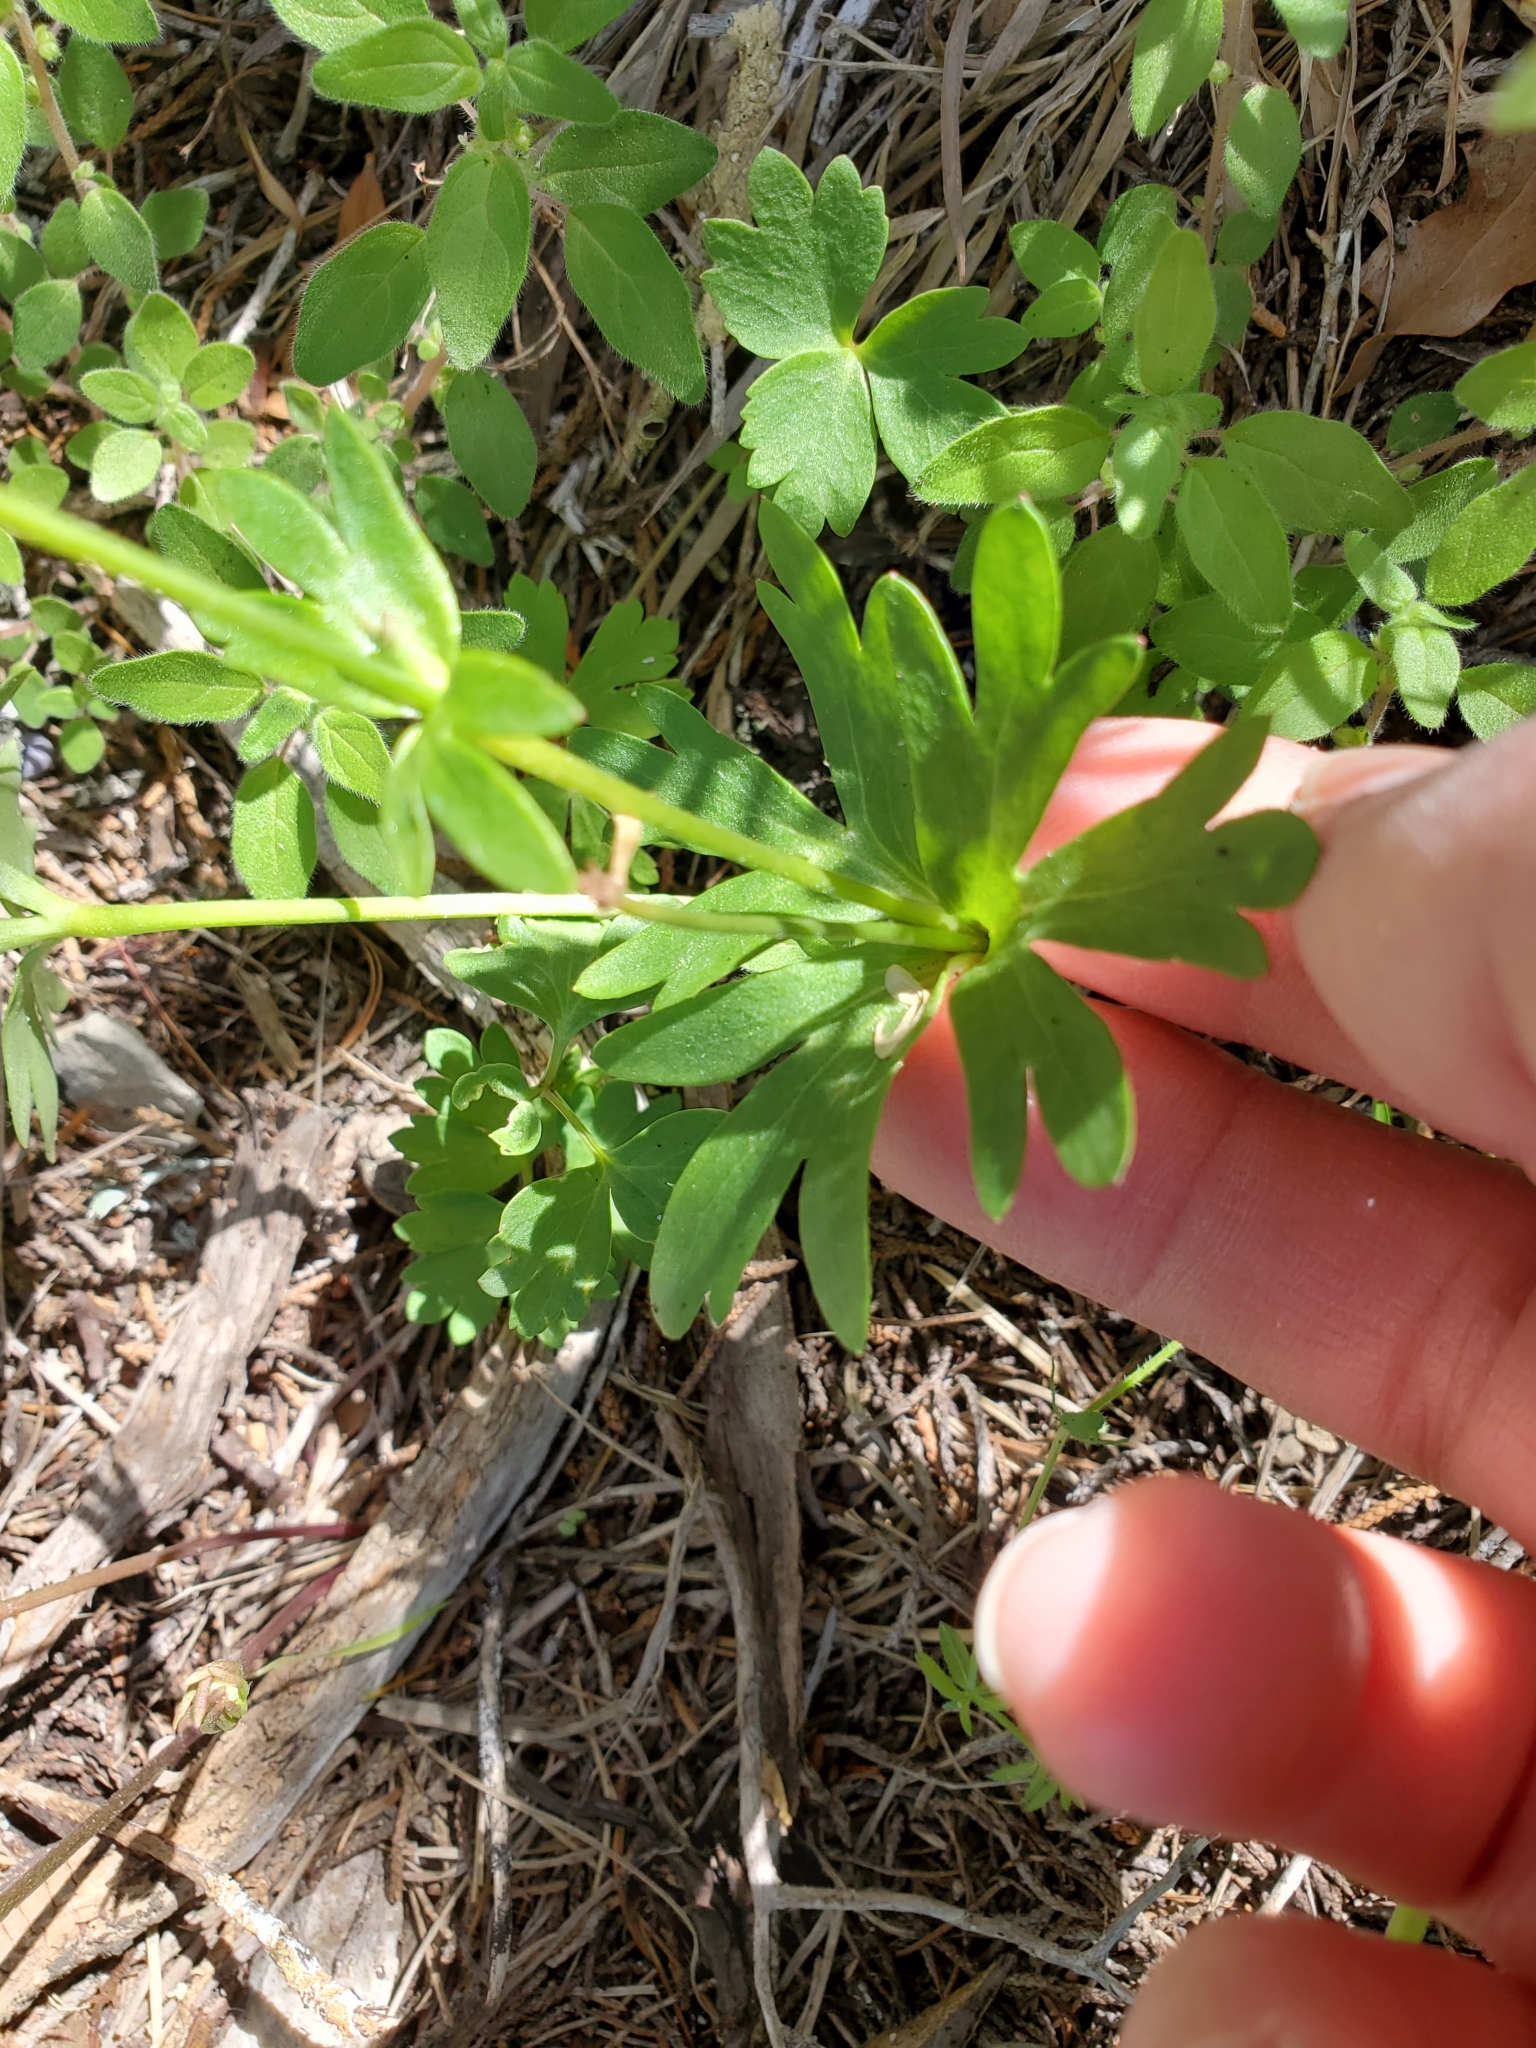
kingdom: Plantae
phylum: Tracheophyta
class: Magnoliopsida
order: Ranunculales
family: Ranunculaceae
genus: Anemone
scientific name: Anemone edwardsiana
